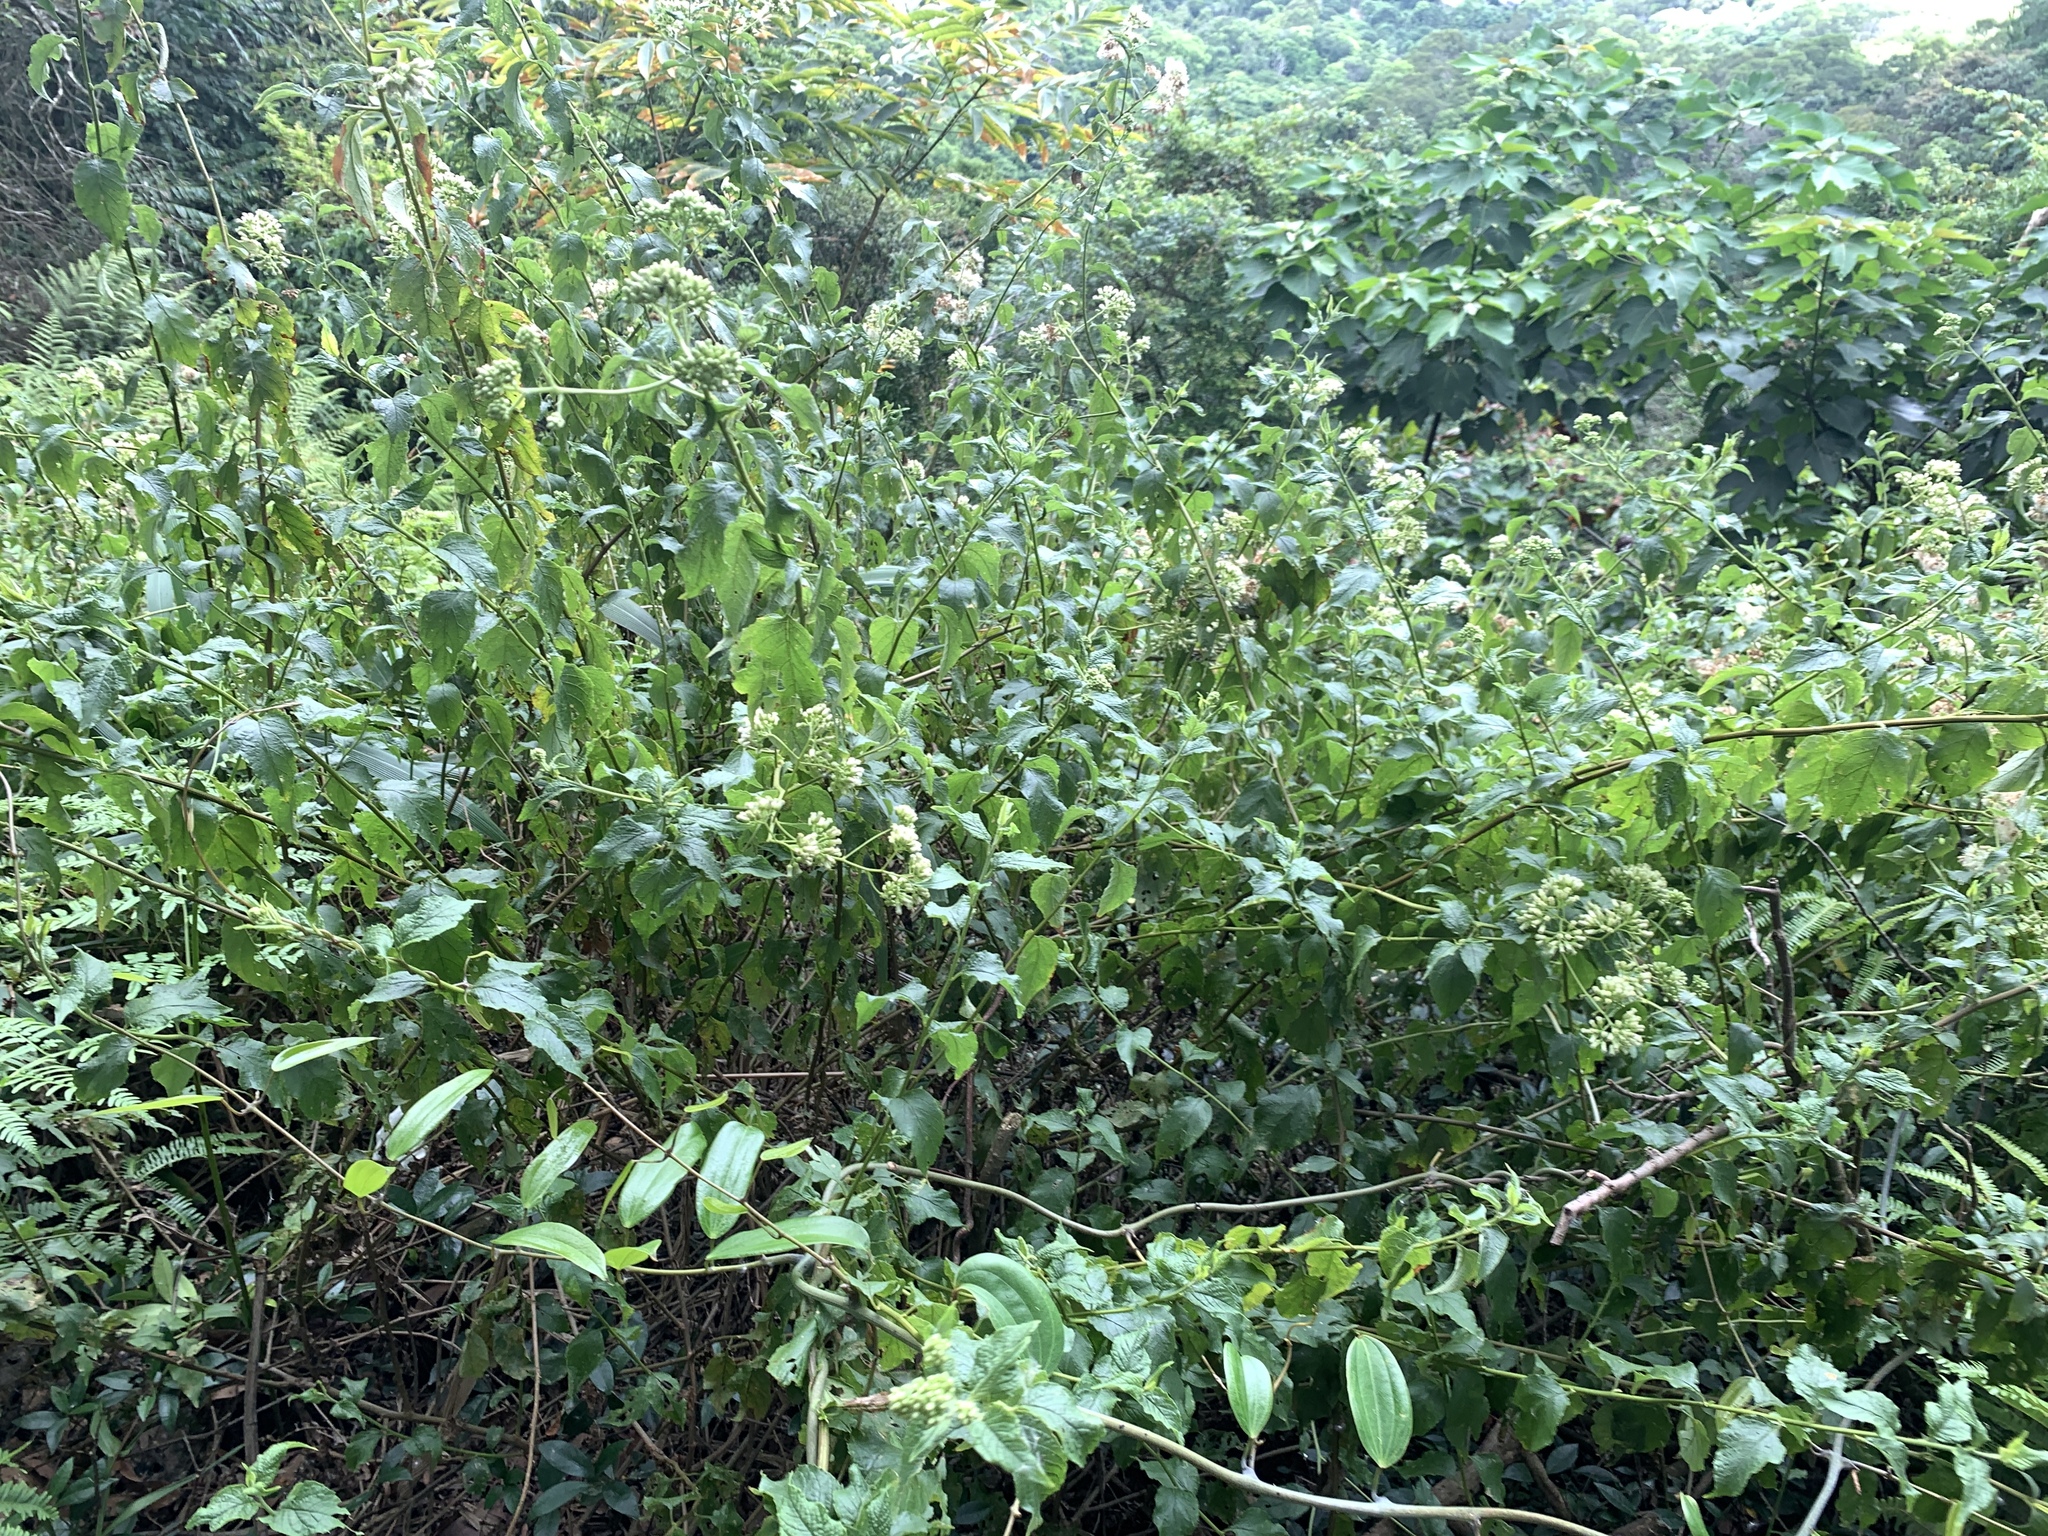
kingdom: Plantae
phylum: Tracheophyta
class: Magnoliopsida
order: Asterales
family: Asteraceae
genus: Microglossa
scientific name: Microglossa pyrifolia
